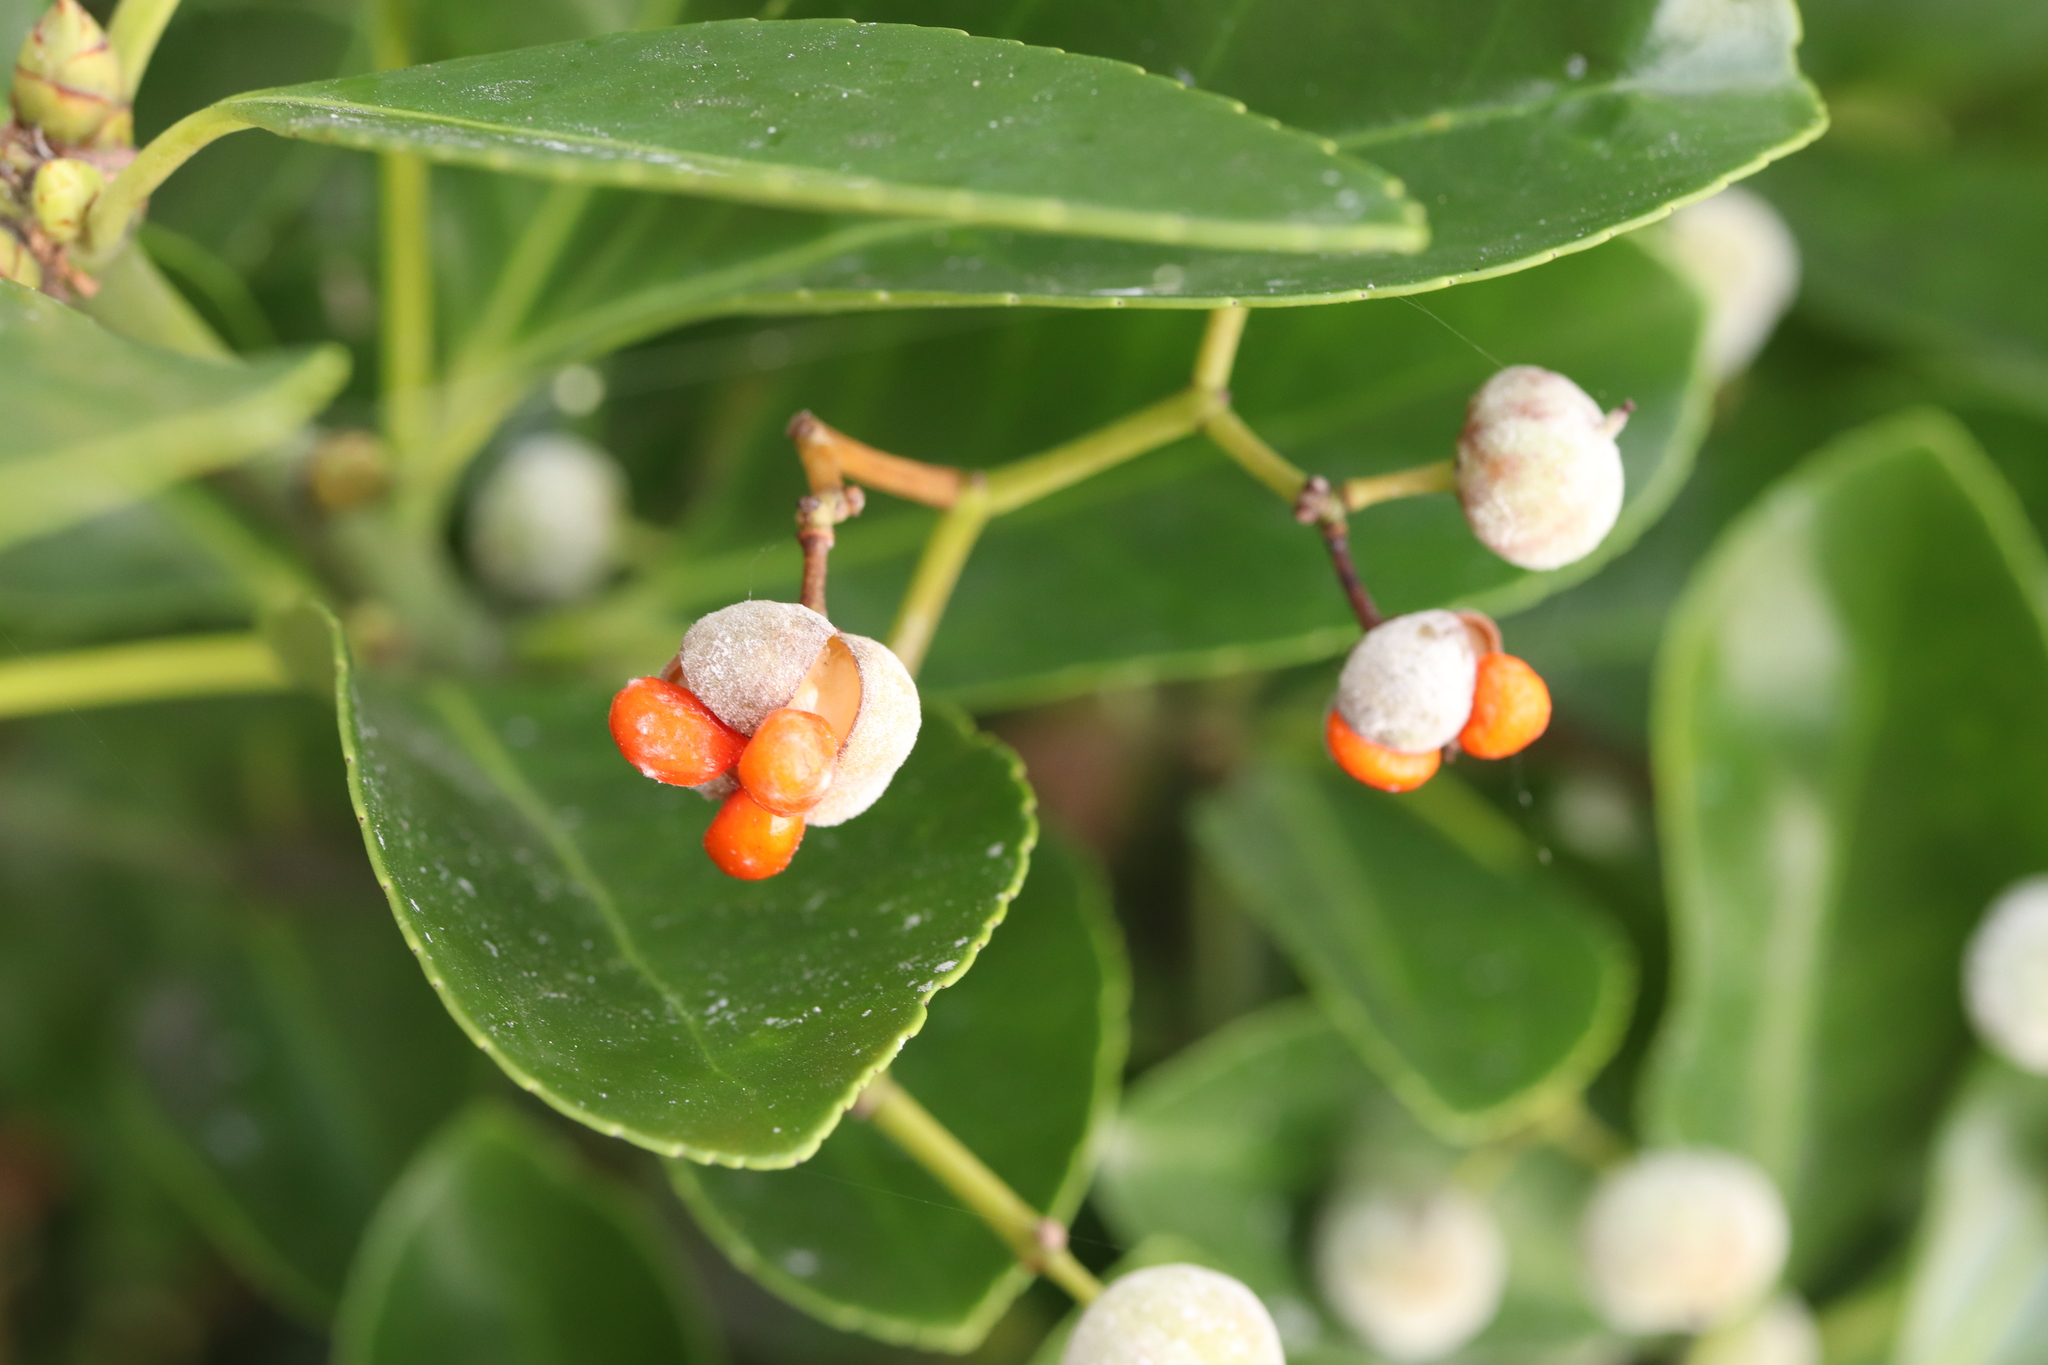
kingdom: Plantae
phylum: Tracheophyta
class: Magnoliopsida
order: Celastrales
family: Celastraceae
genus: Euonymus
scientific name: Euonymus fortunei
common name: Climbing euonymus
